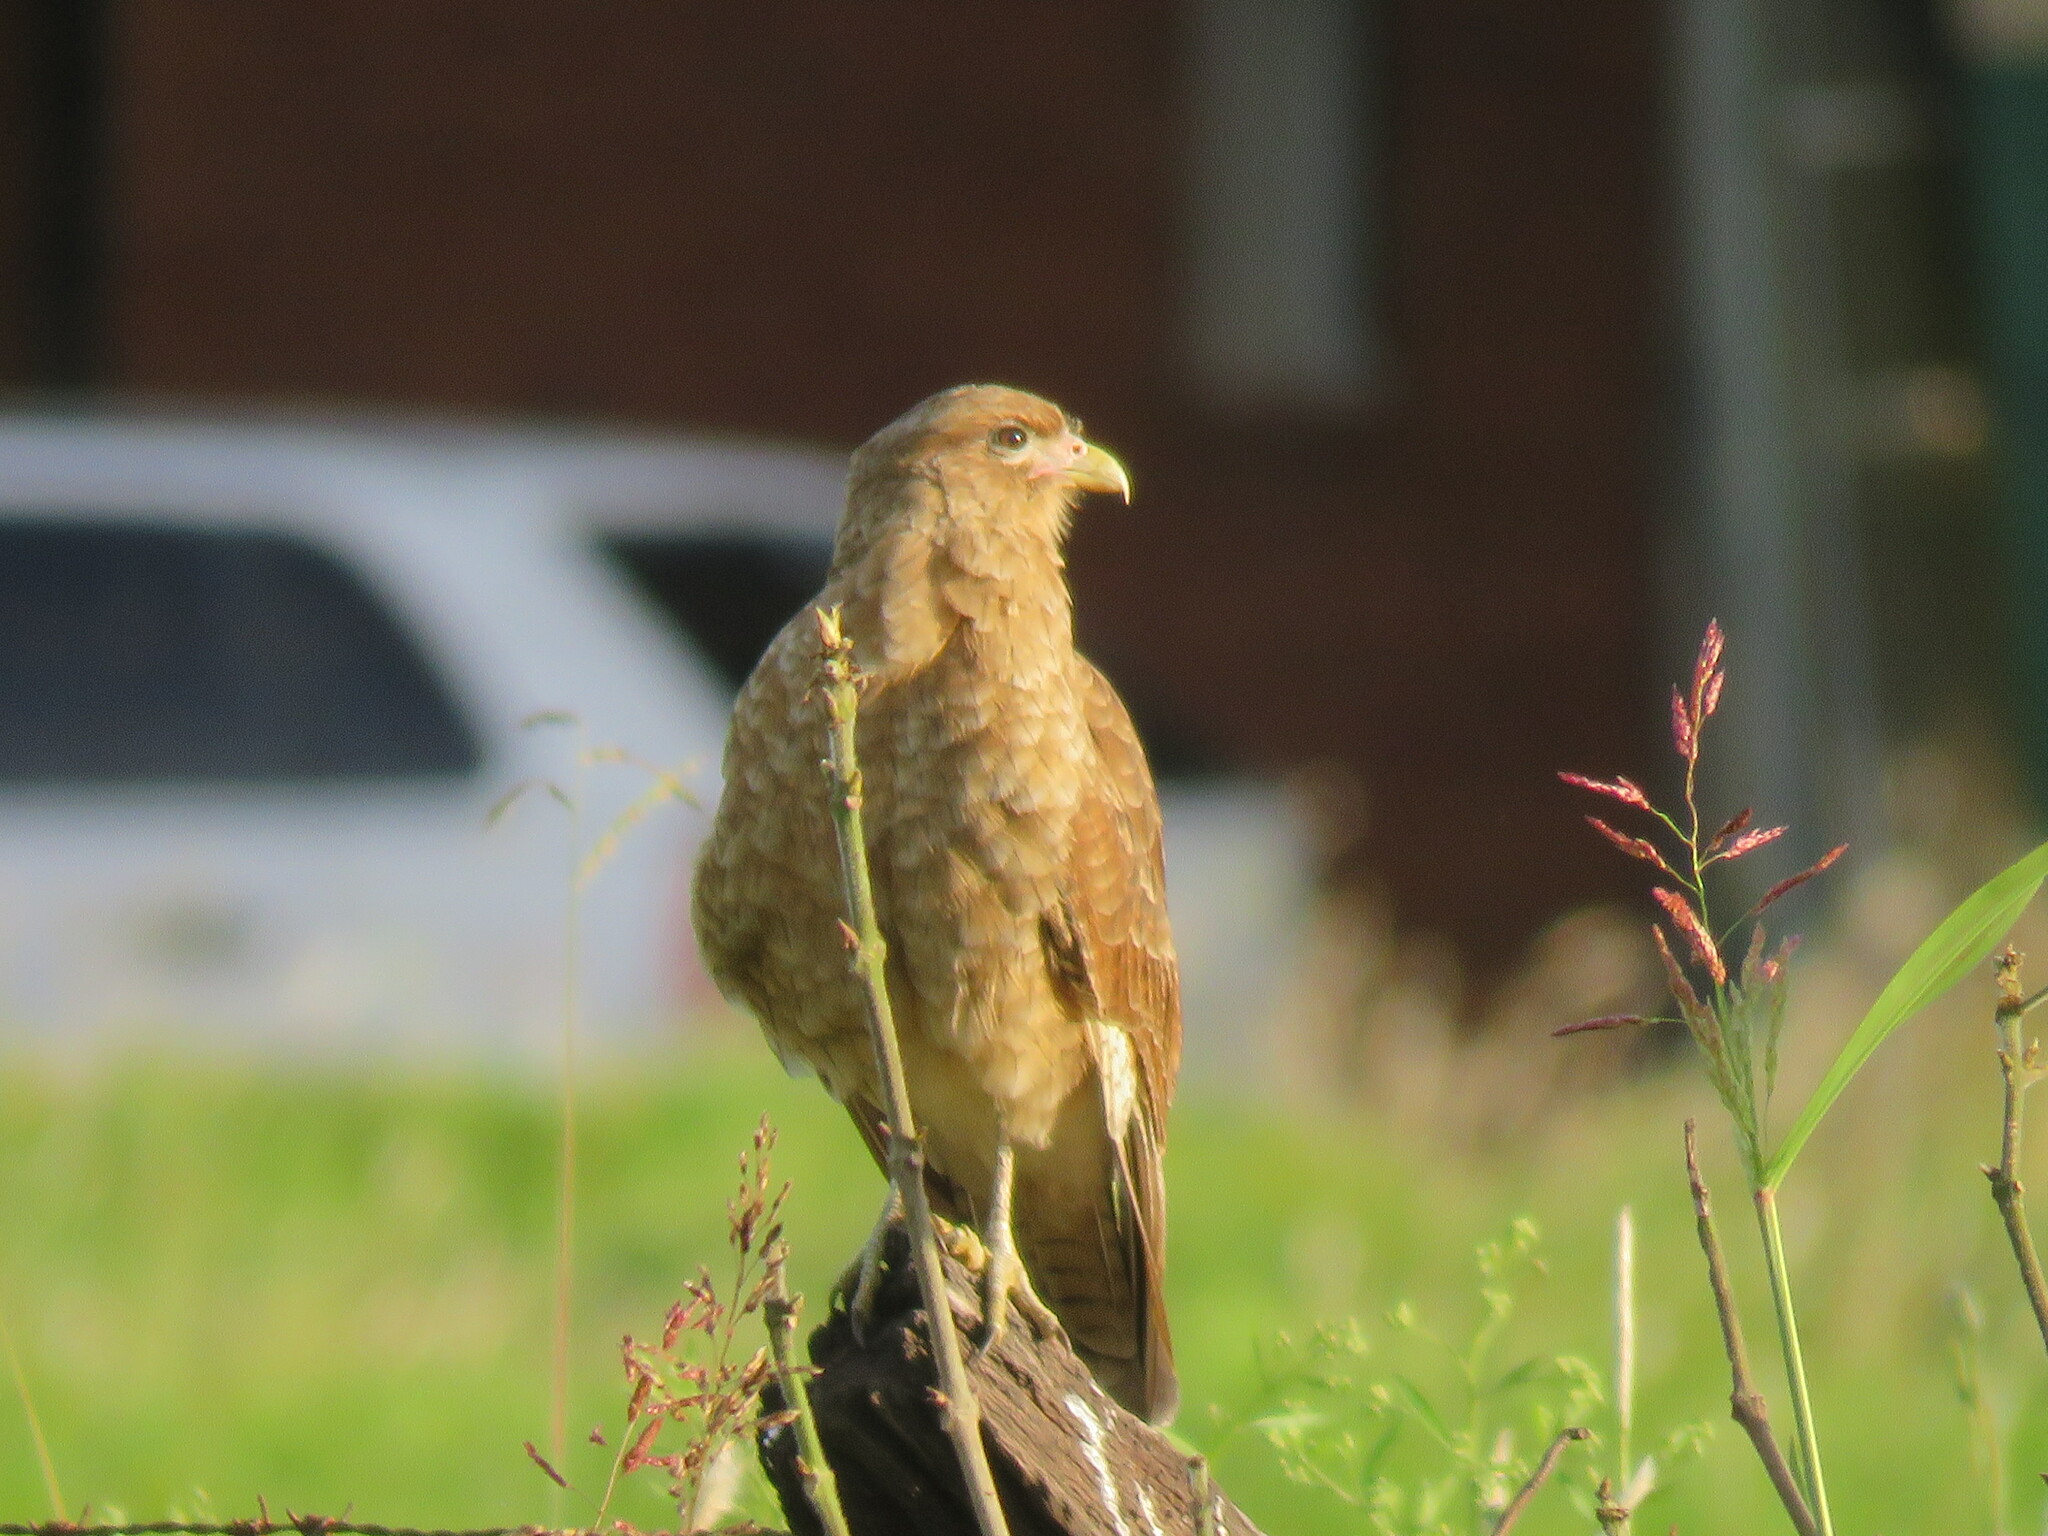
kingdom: Animalia
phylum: Chordata
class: Aves
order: Falconiformes
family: Falconidae
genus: Daptrius
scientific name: Daptrius
